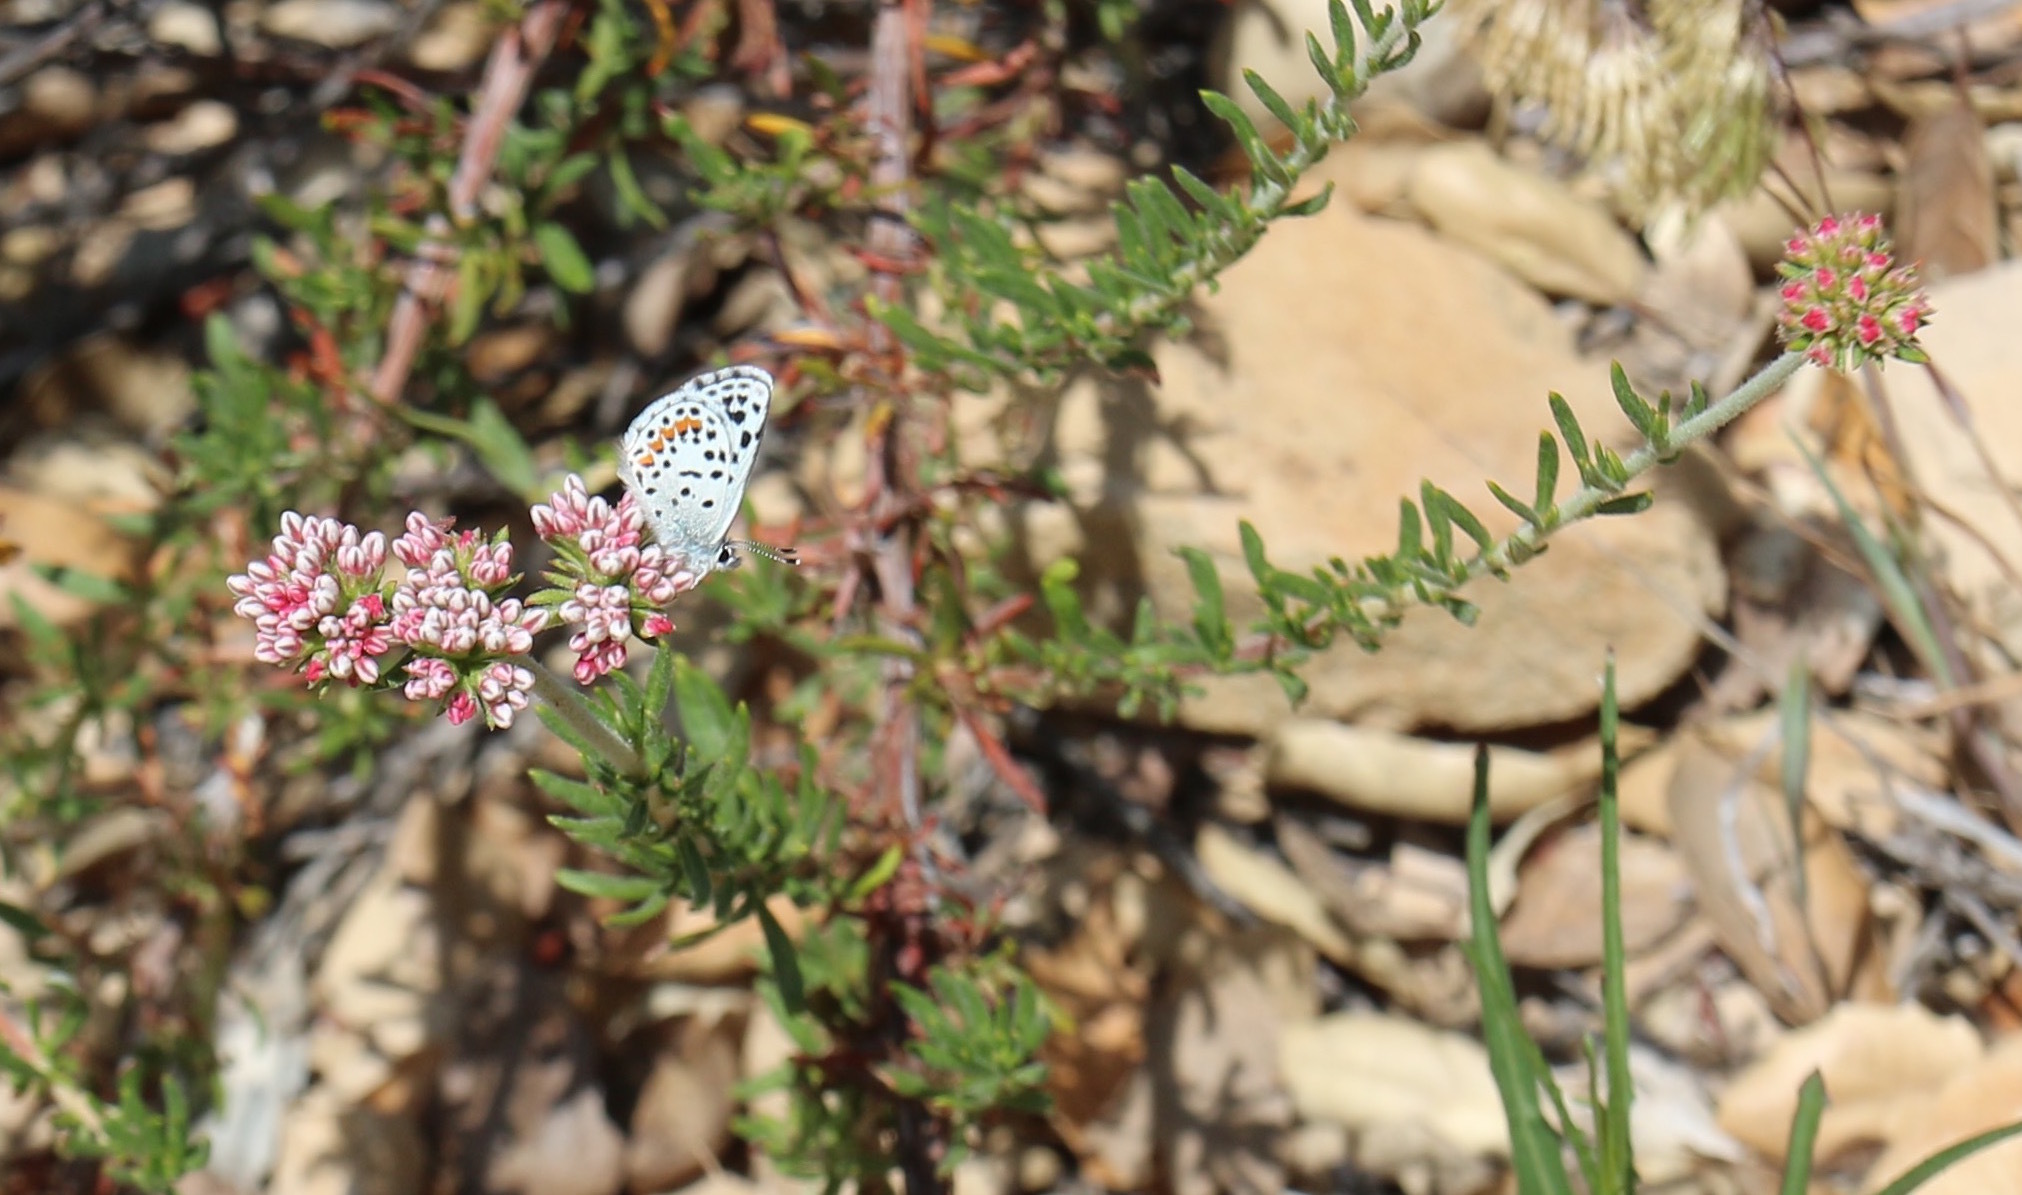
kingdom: Plantae
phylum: Tracheophyta
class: Magnoliopsida
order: Caryophyllales
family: Polygonaceae
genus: Eriogonum
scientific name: Eriogonum fasciculatum
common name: California wild buckwheat
